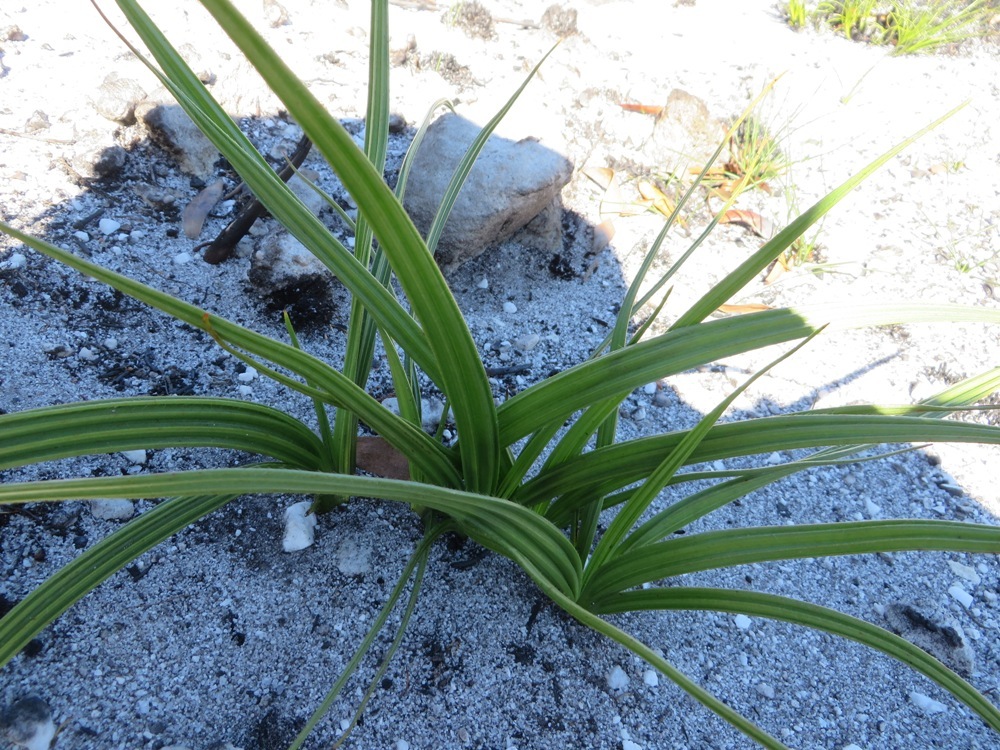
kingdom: Plantae
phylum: Tracheophyta
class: Liliopsida
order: Commelinales
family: Haemodoraceae
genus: Wachendorfia
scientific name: Wachendorfia paniculata
